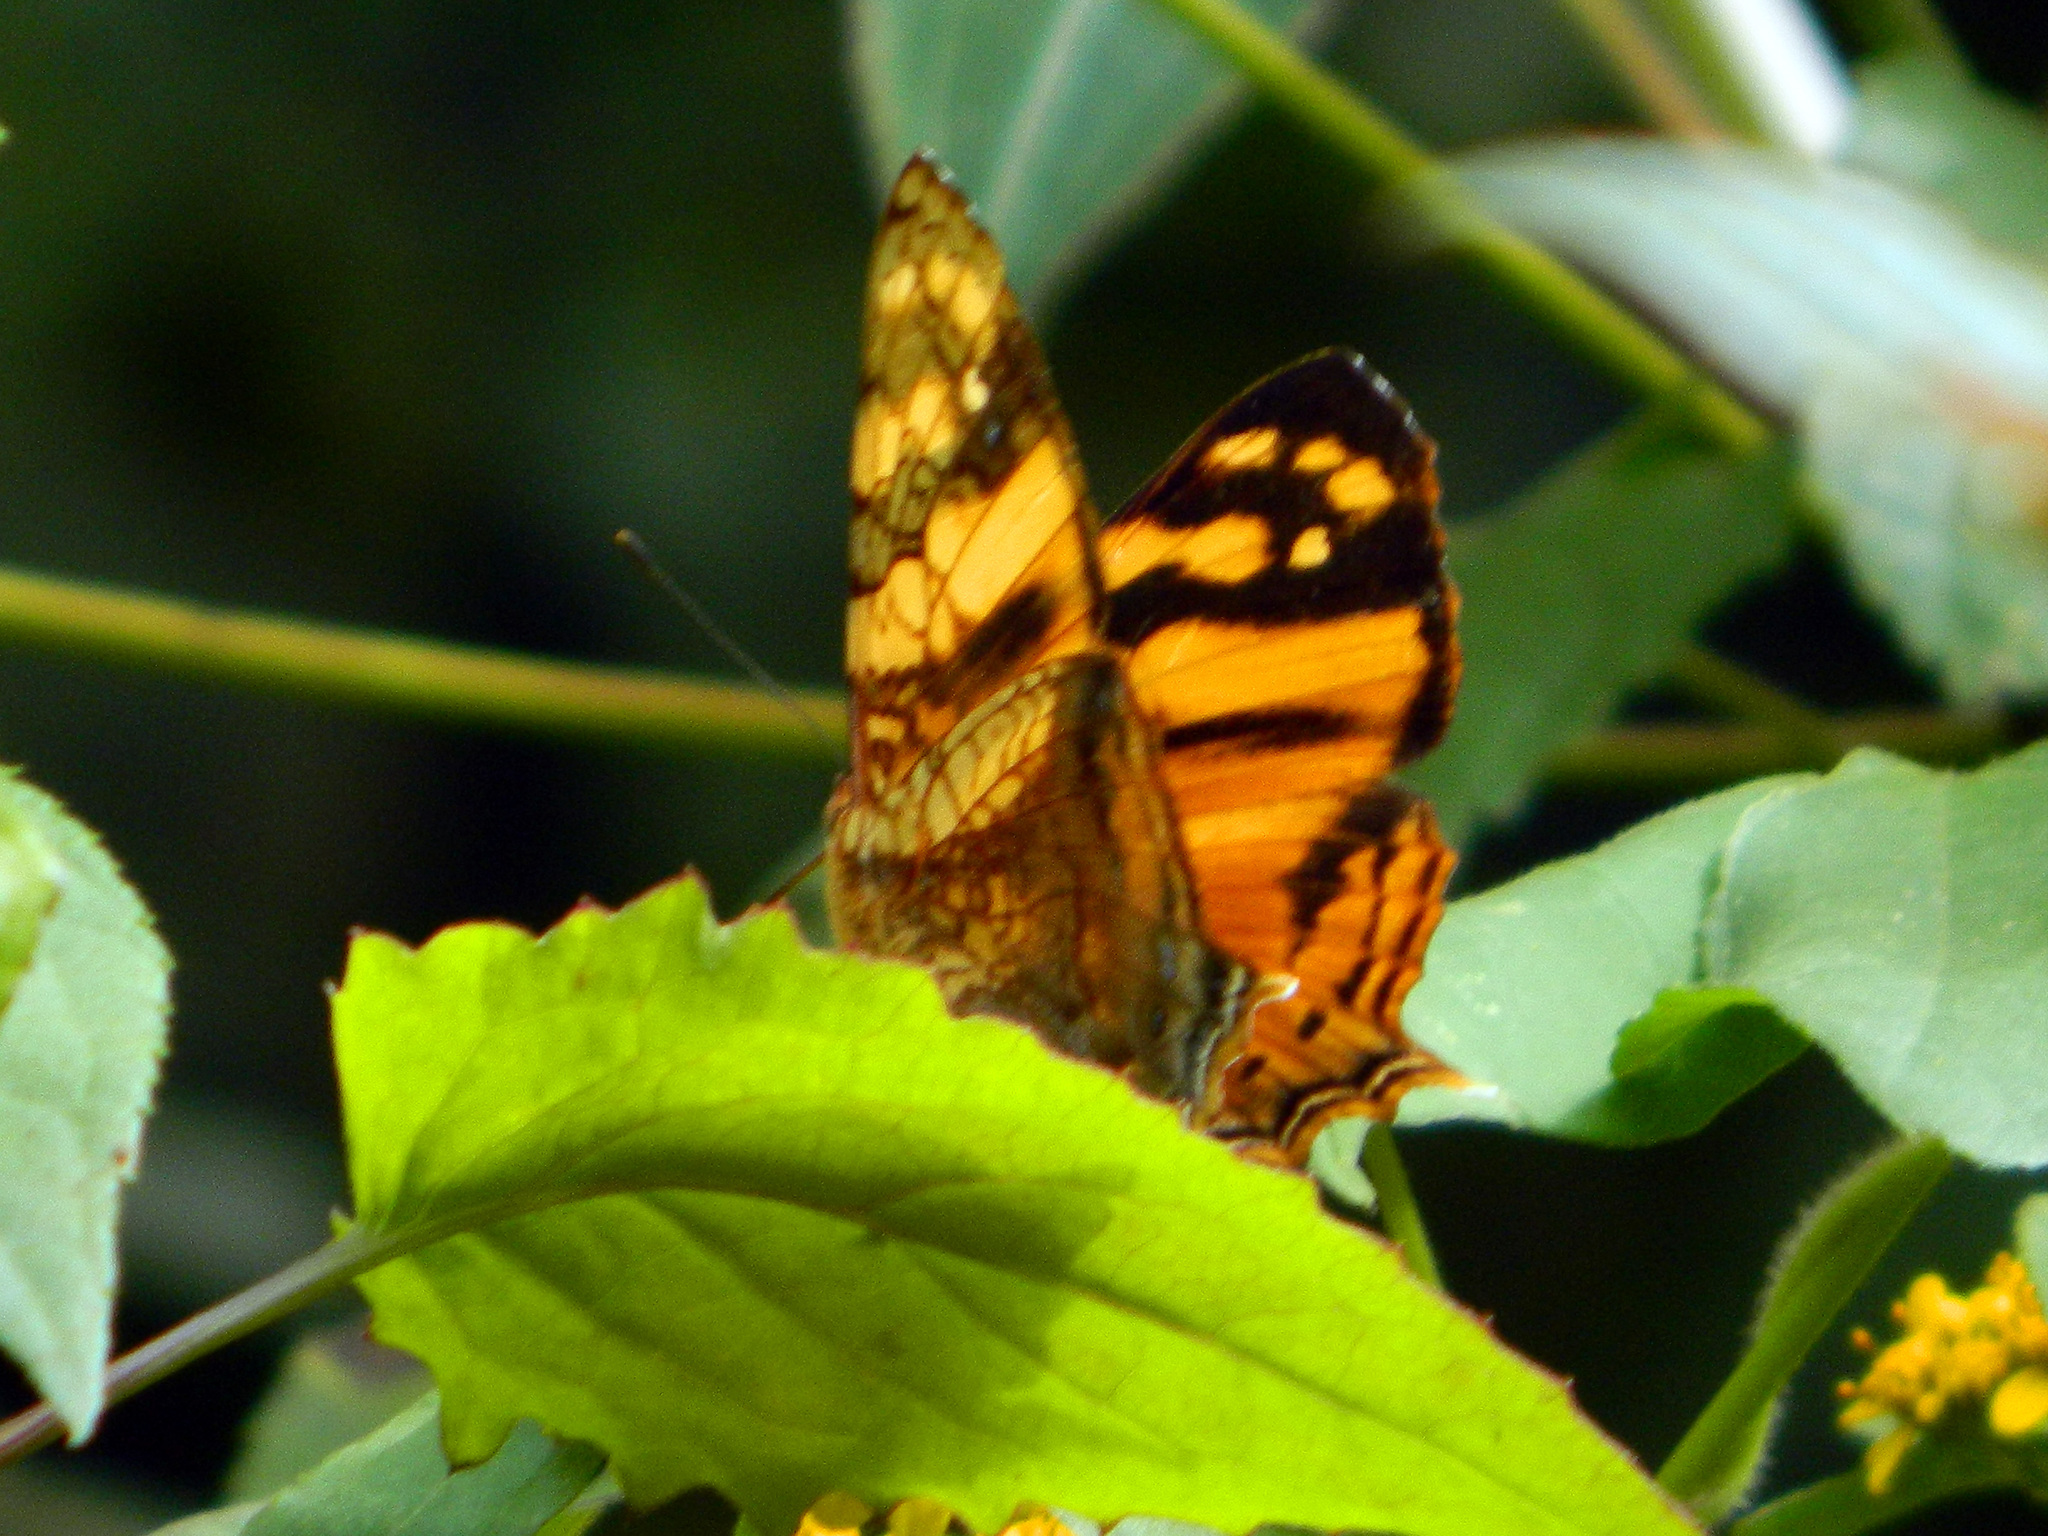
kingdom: Animalia
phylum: Arthropoda
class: Insecta
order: Lepidoptera
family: Nymphalidae
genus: Hypanartia
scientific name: Hypanartia lethe
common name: Orange mapwing
